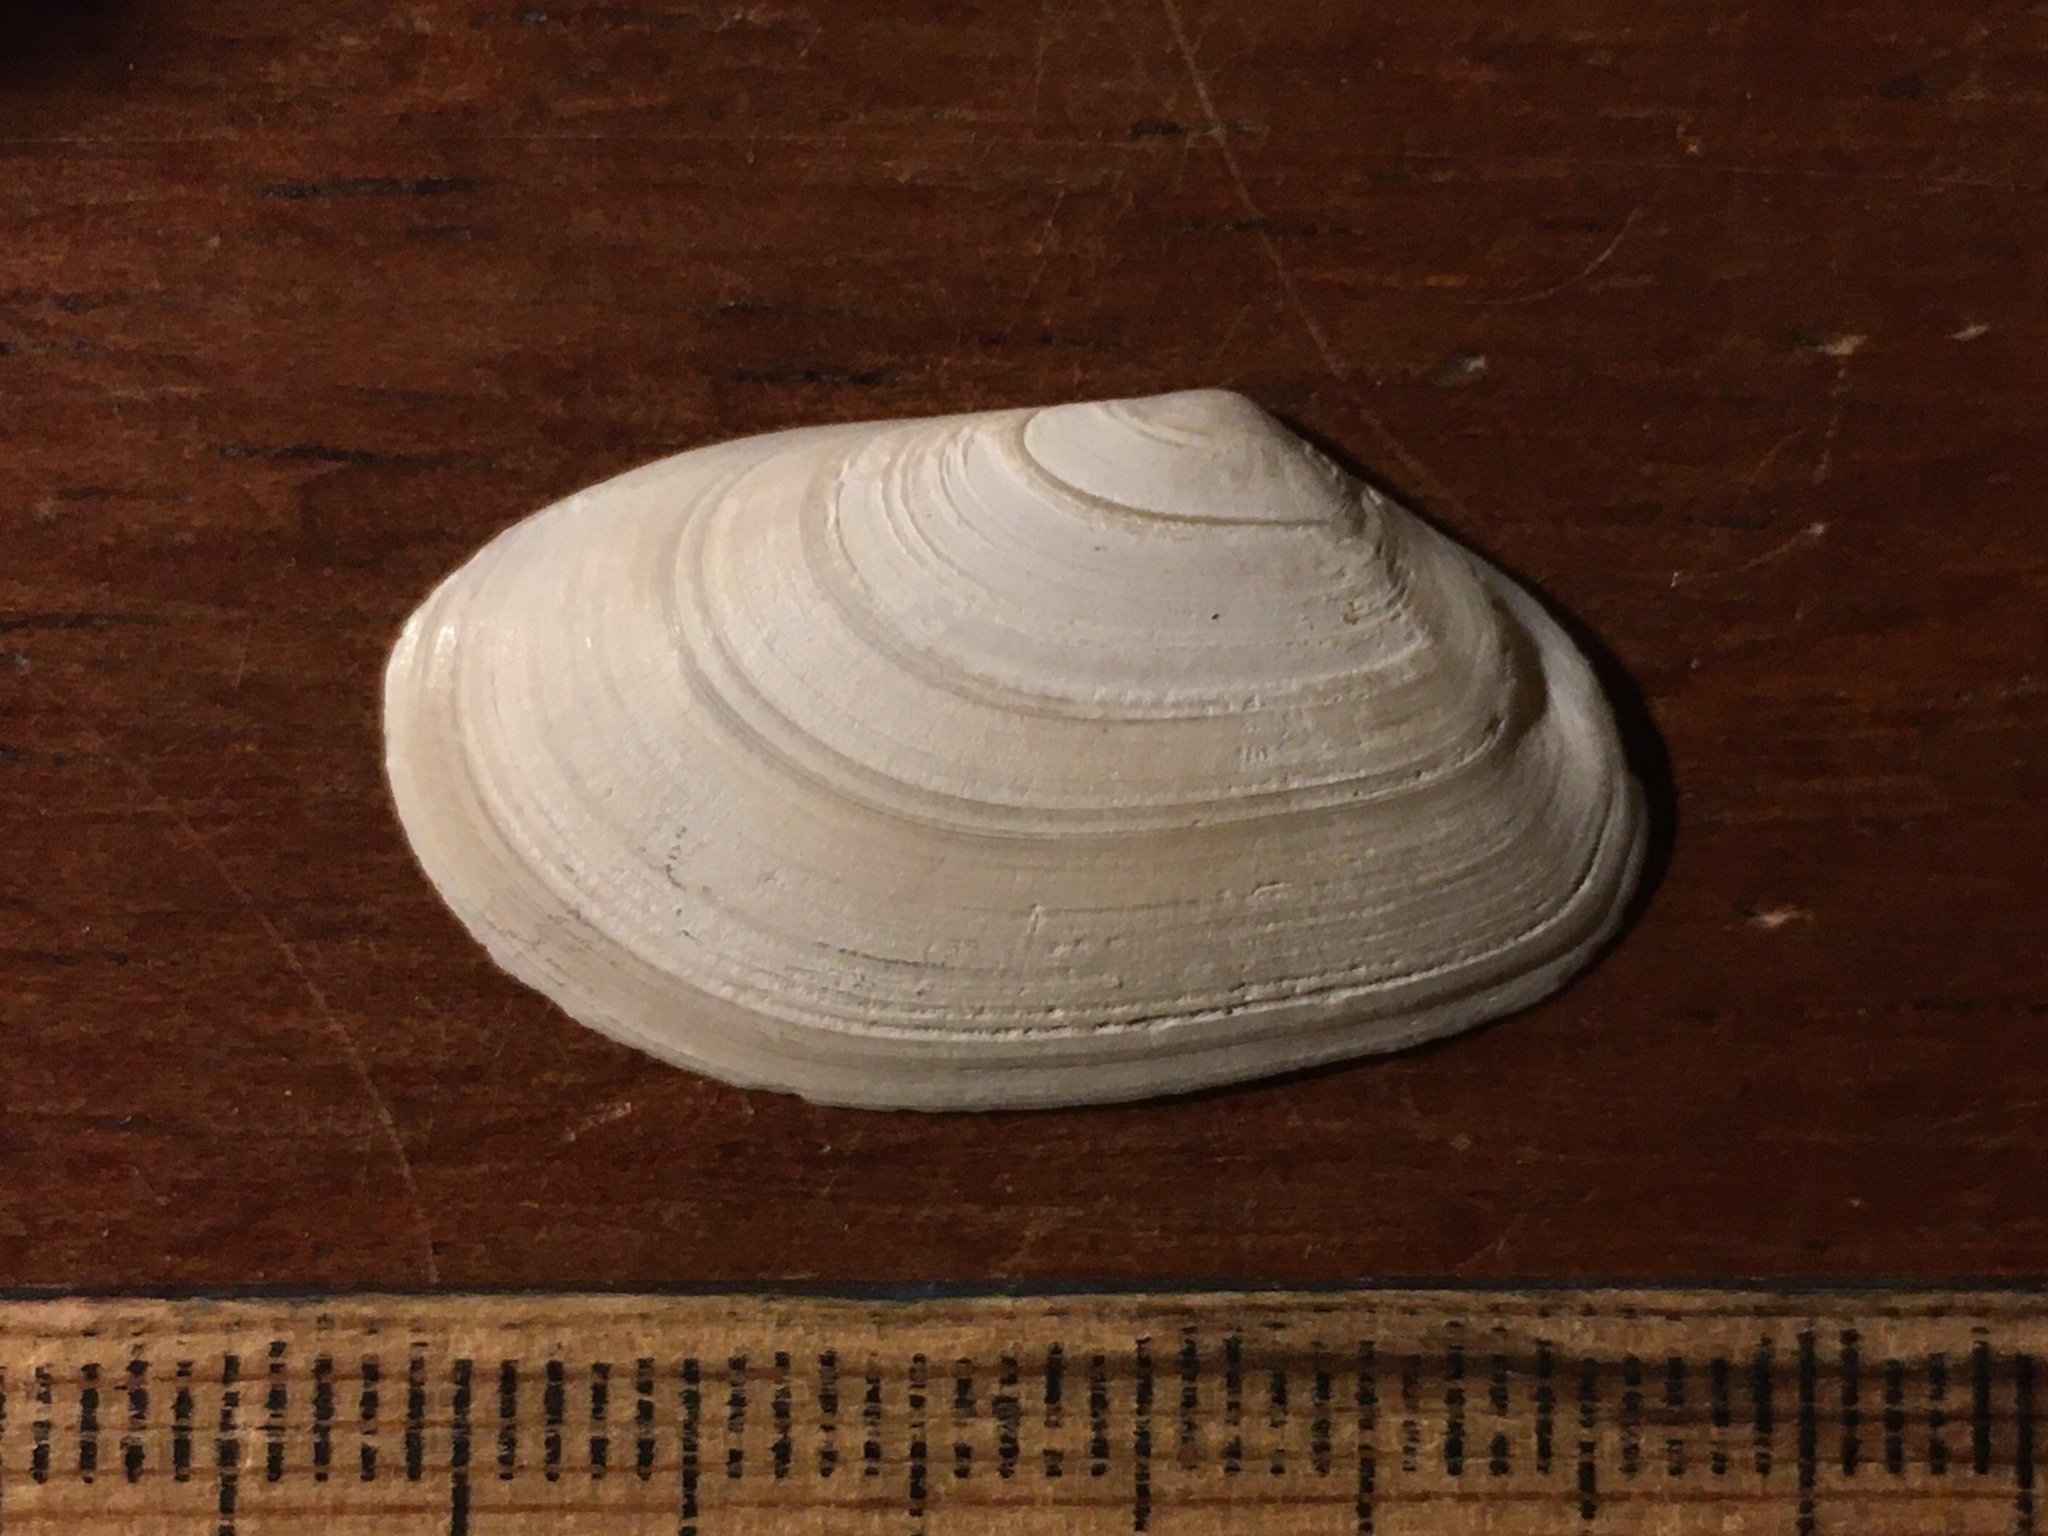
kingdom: Animalia
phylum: Mollusca
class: Bivalvia
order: Cardiida
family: Tellinidae
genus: Psammotreta
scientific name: Psammotreta brevifrons
